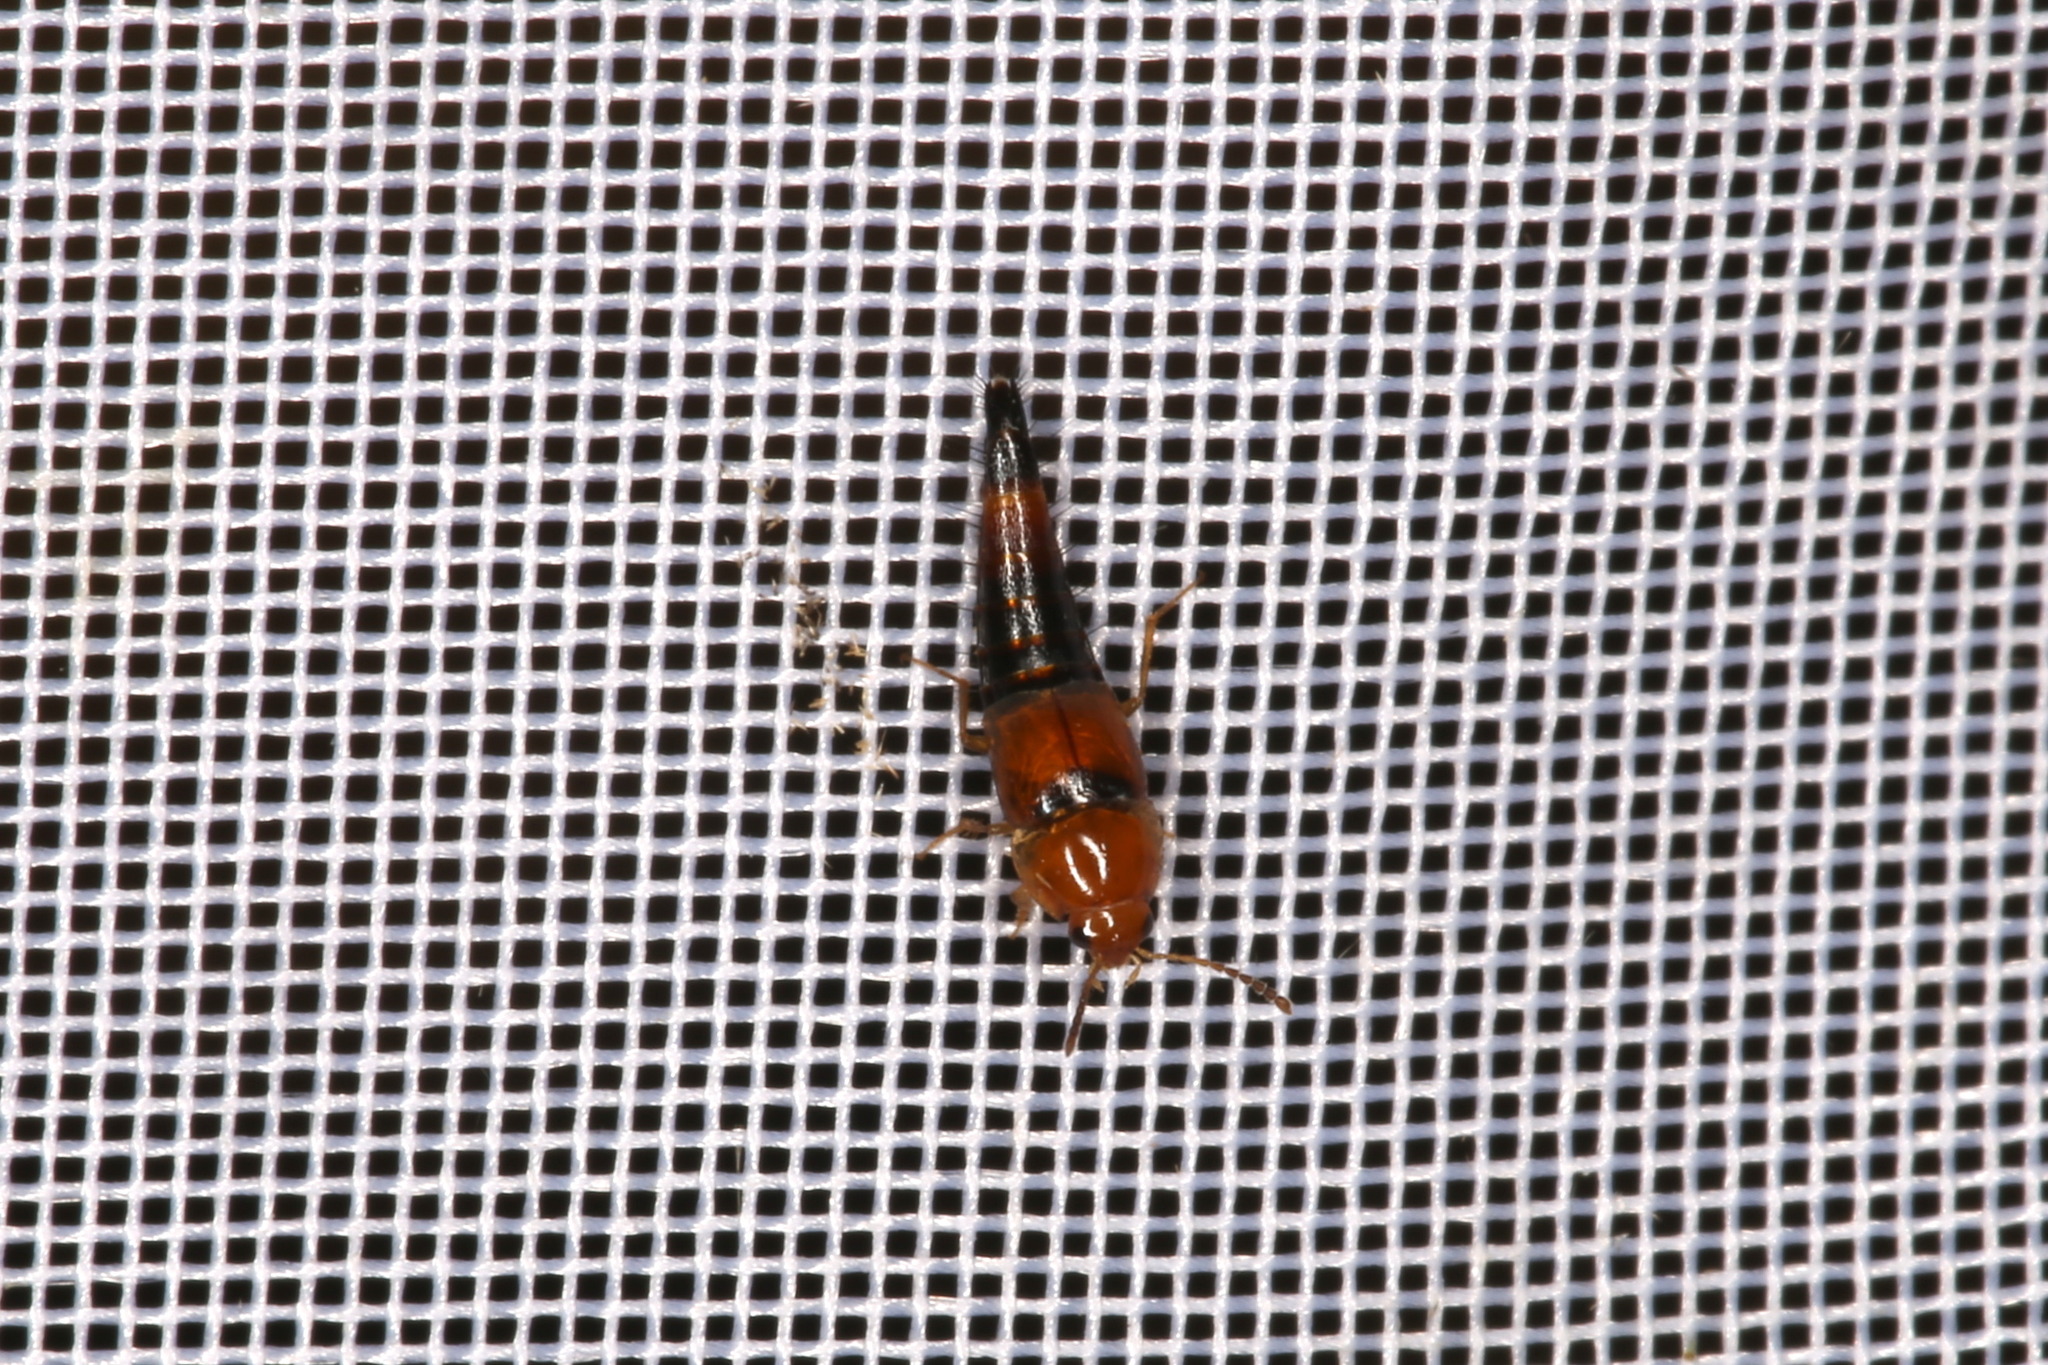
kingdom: Animalia
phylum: Arthropoda
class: Insecta
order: Coleoptera
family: Staphylinidae
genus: Tachyporus
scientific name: Tachyporus formosus
